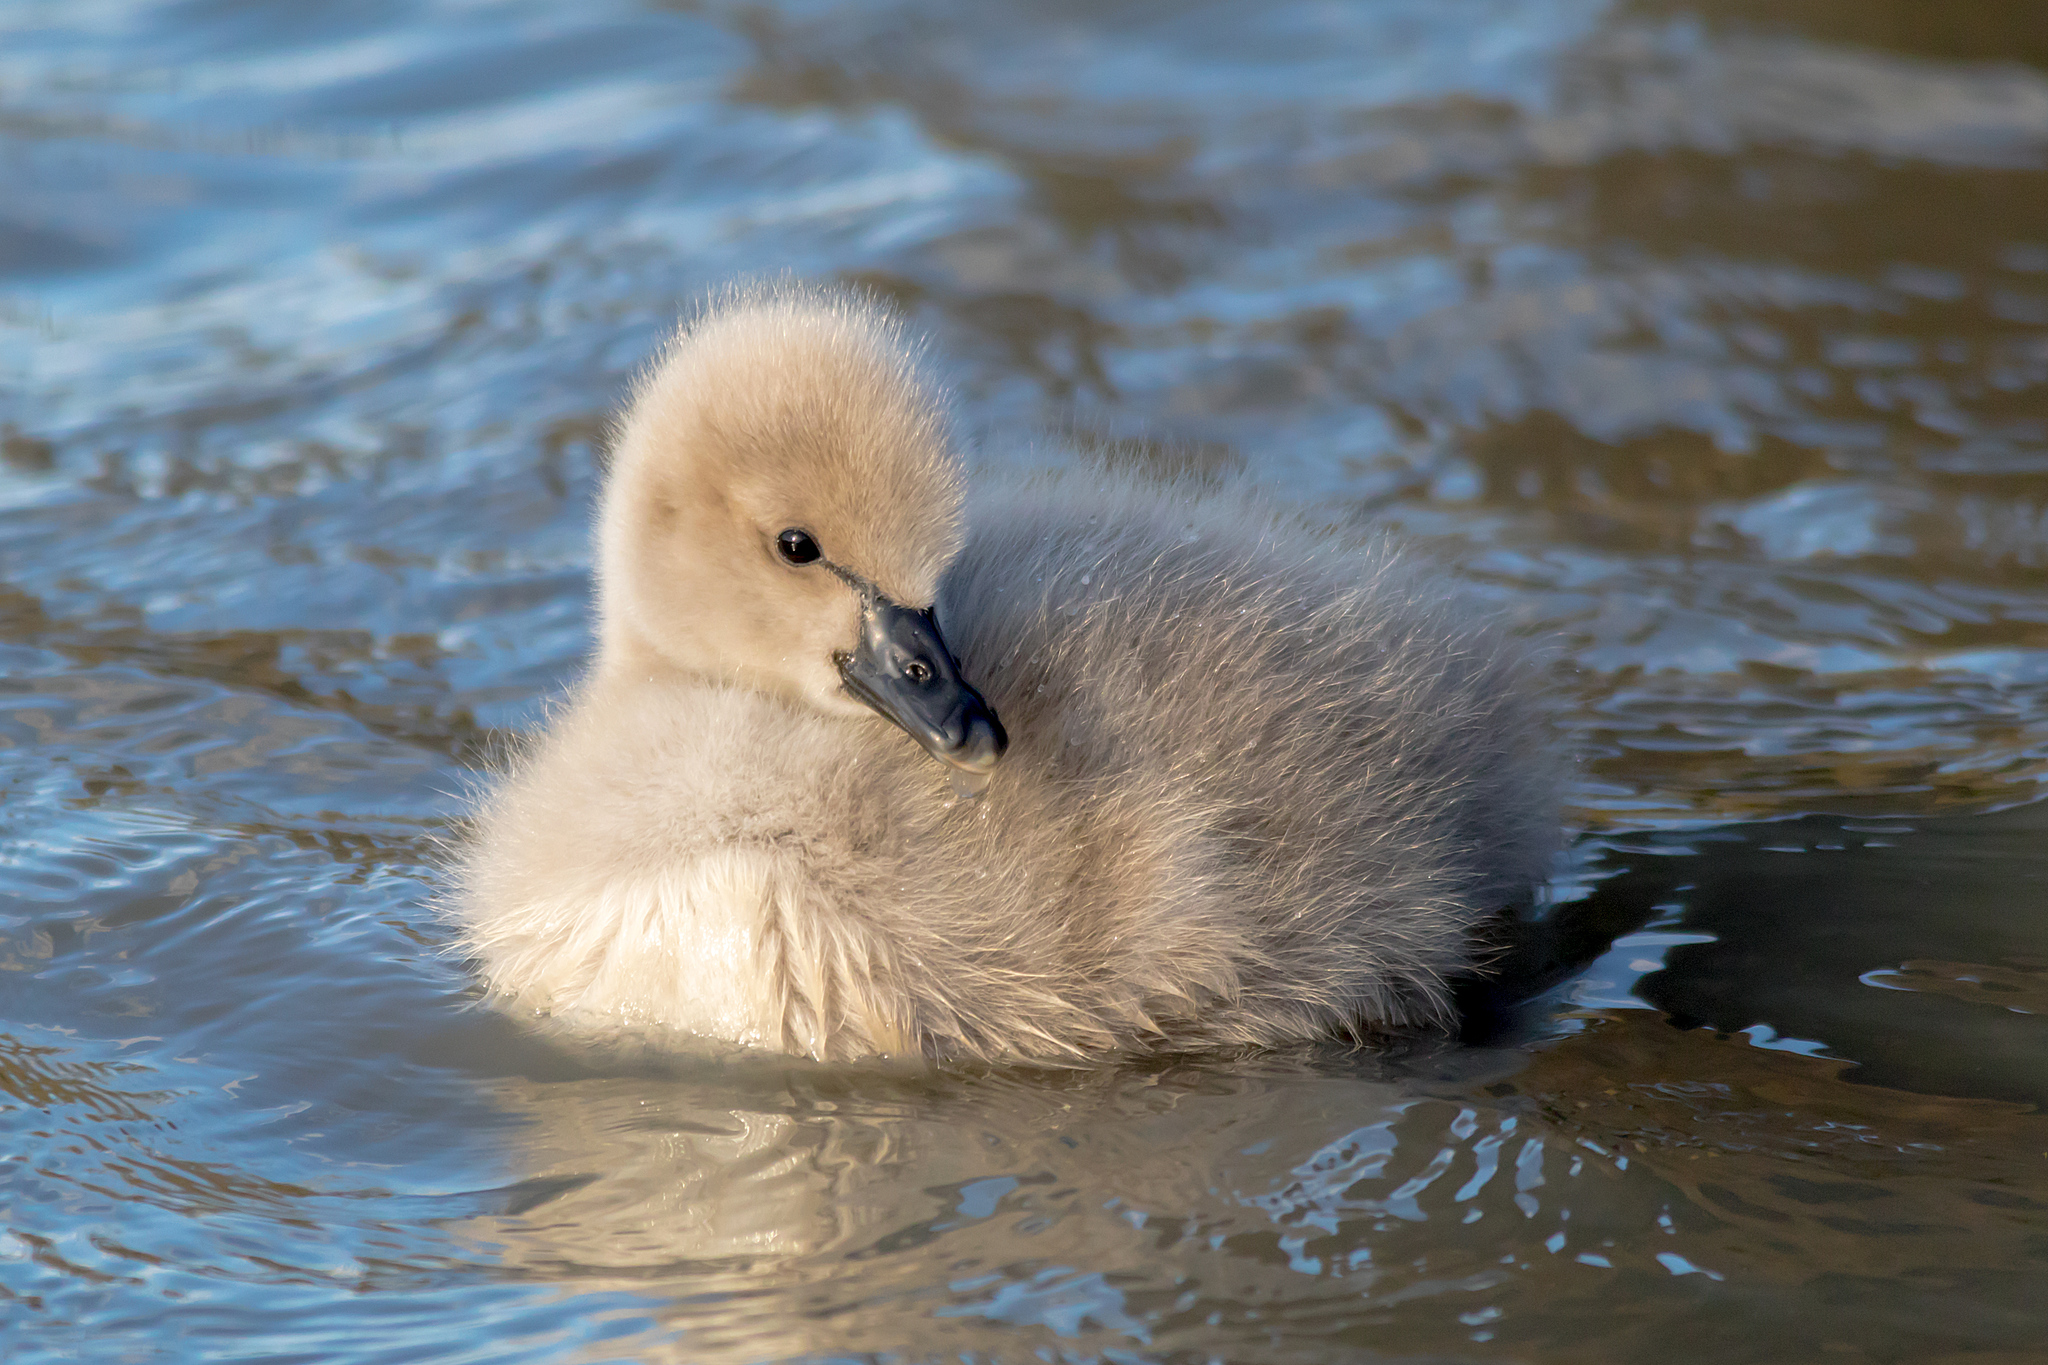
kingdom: Animalia
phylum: Chordata
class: Aves
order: Anseriformes
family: Anatidae
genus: Cygnus
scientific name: Cygnus atratus
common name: Black swan
